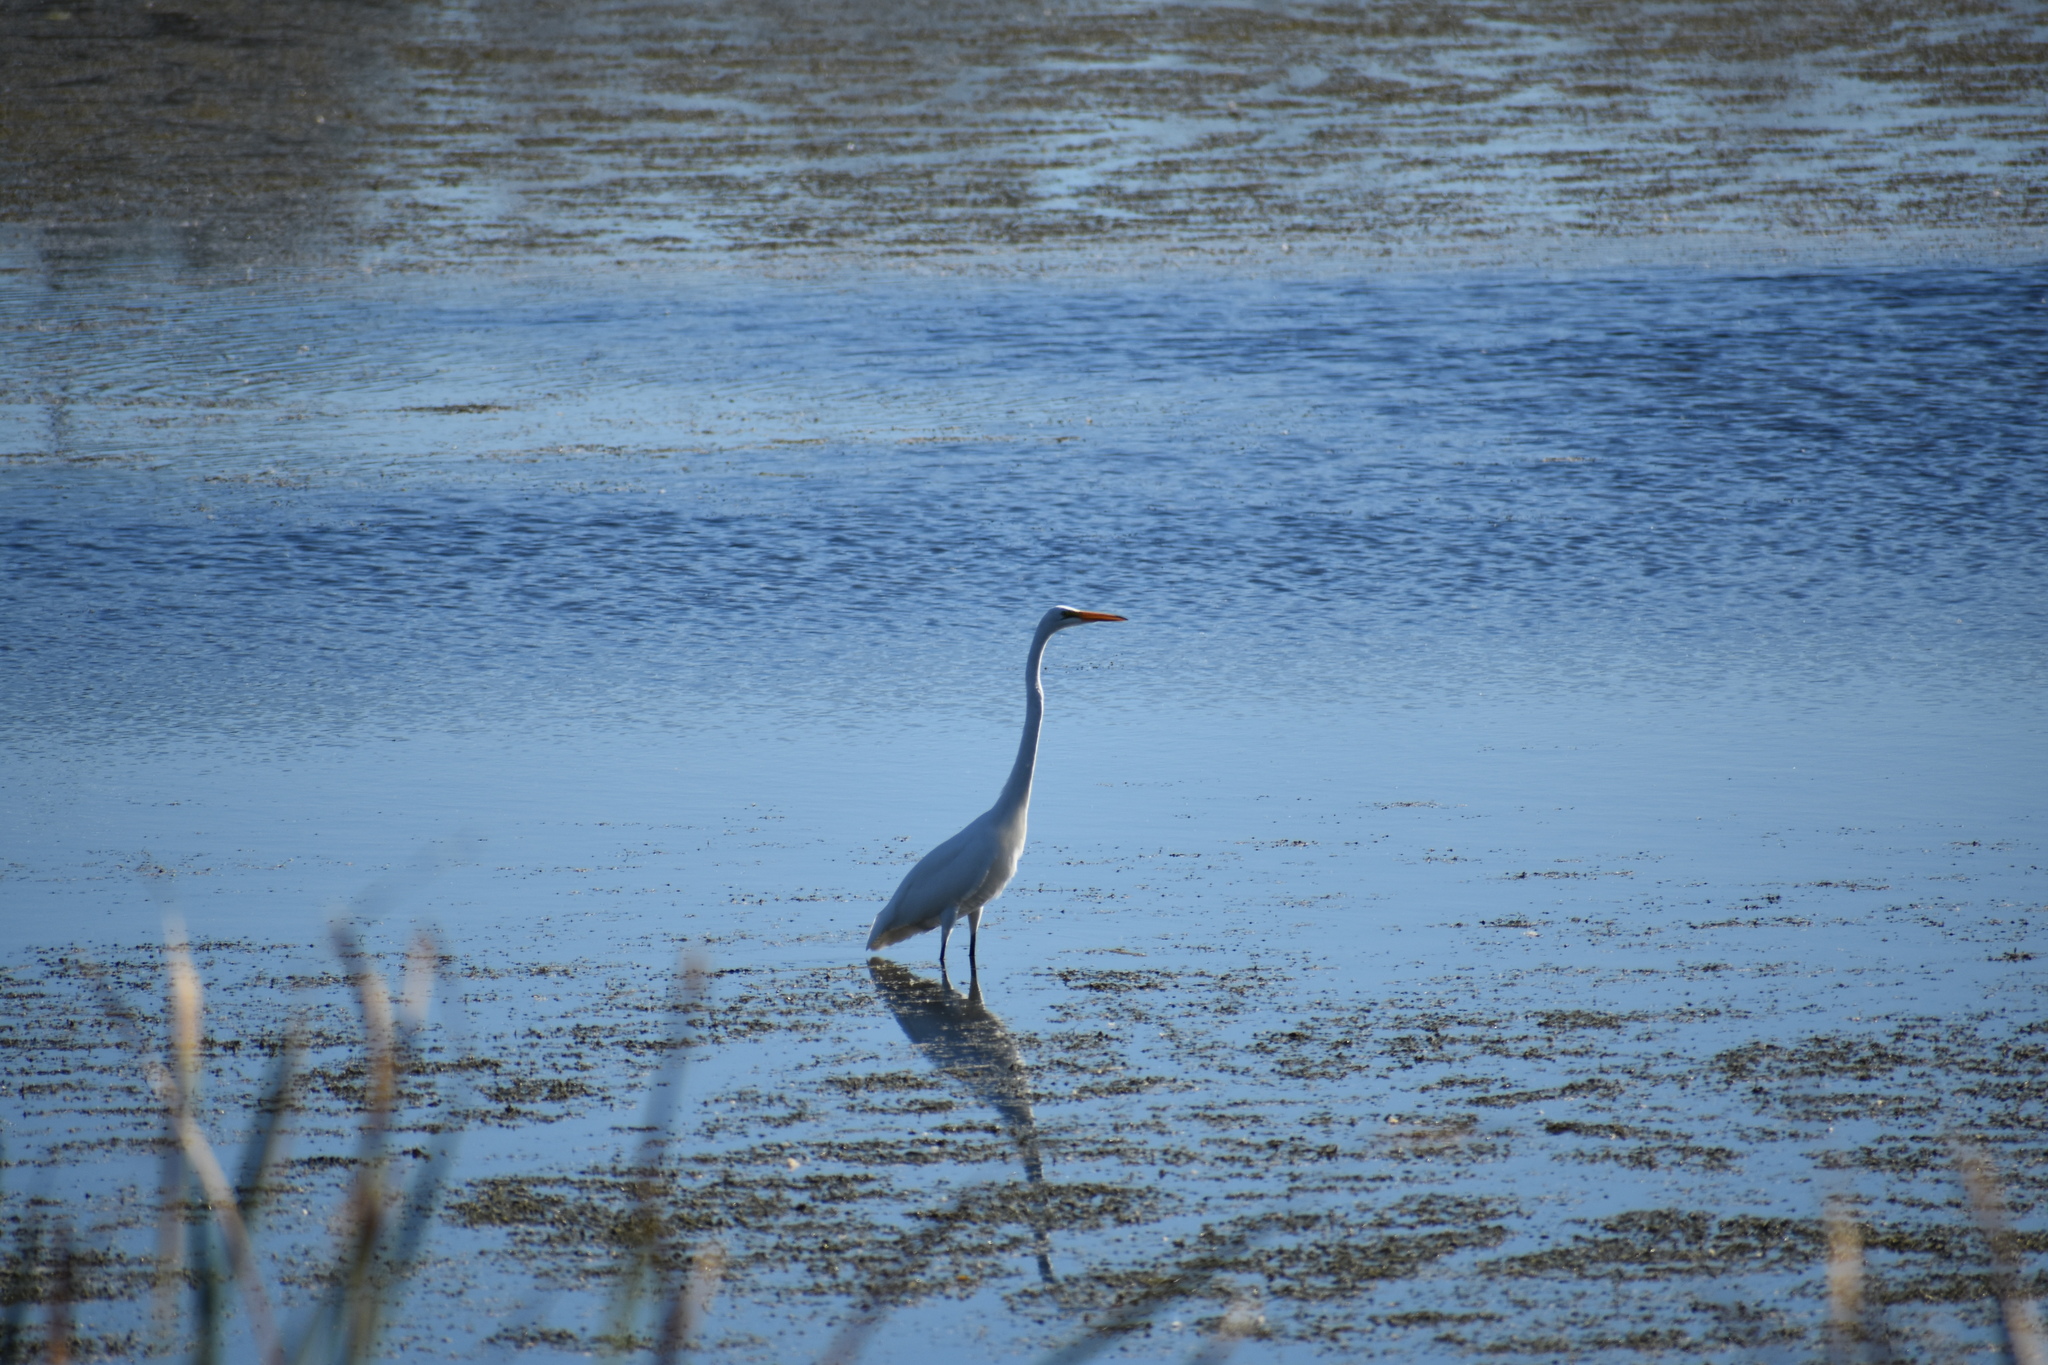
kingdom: Animalia
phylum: Chordata
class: Aves
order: Pelecaniformes
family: Ardeidae
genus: Ardea
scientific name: Ardea alba
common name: Great egret
